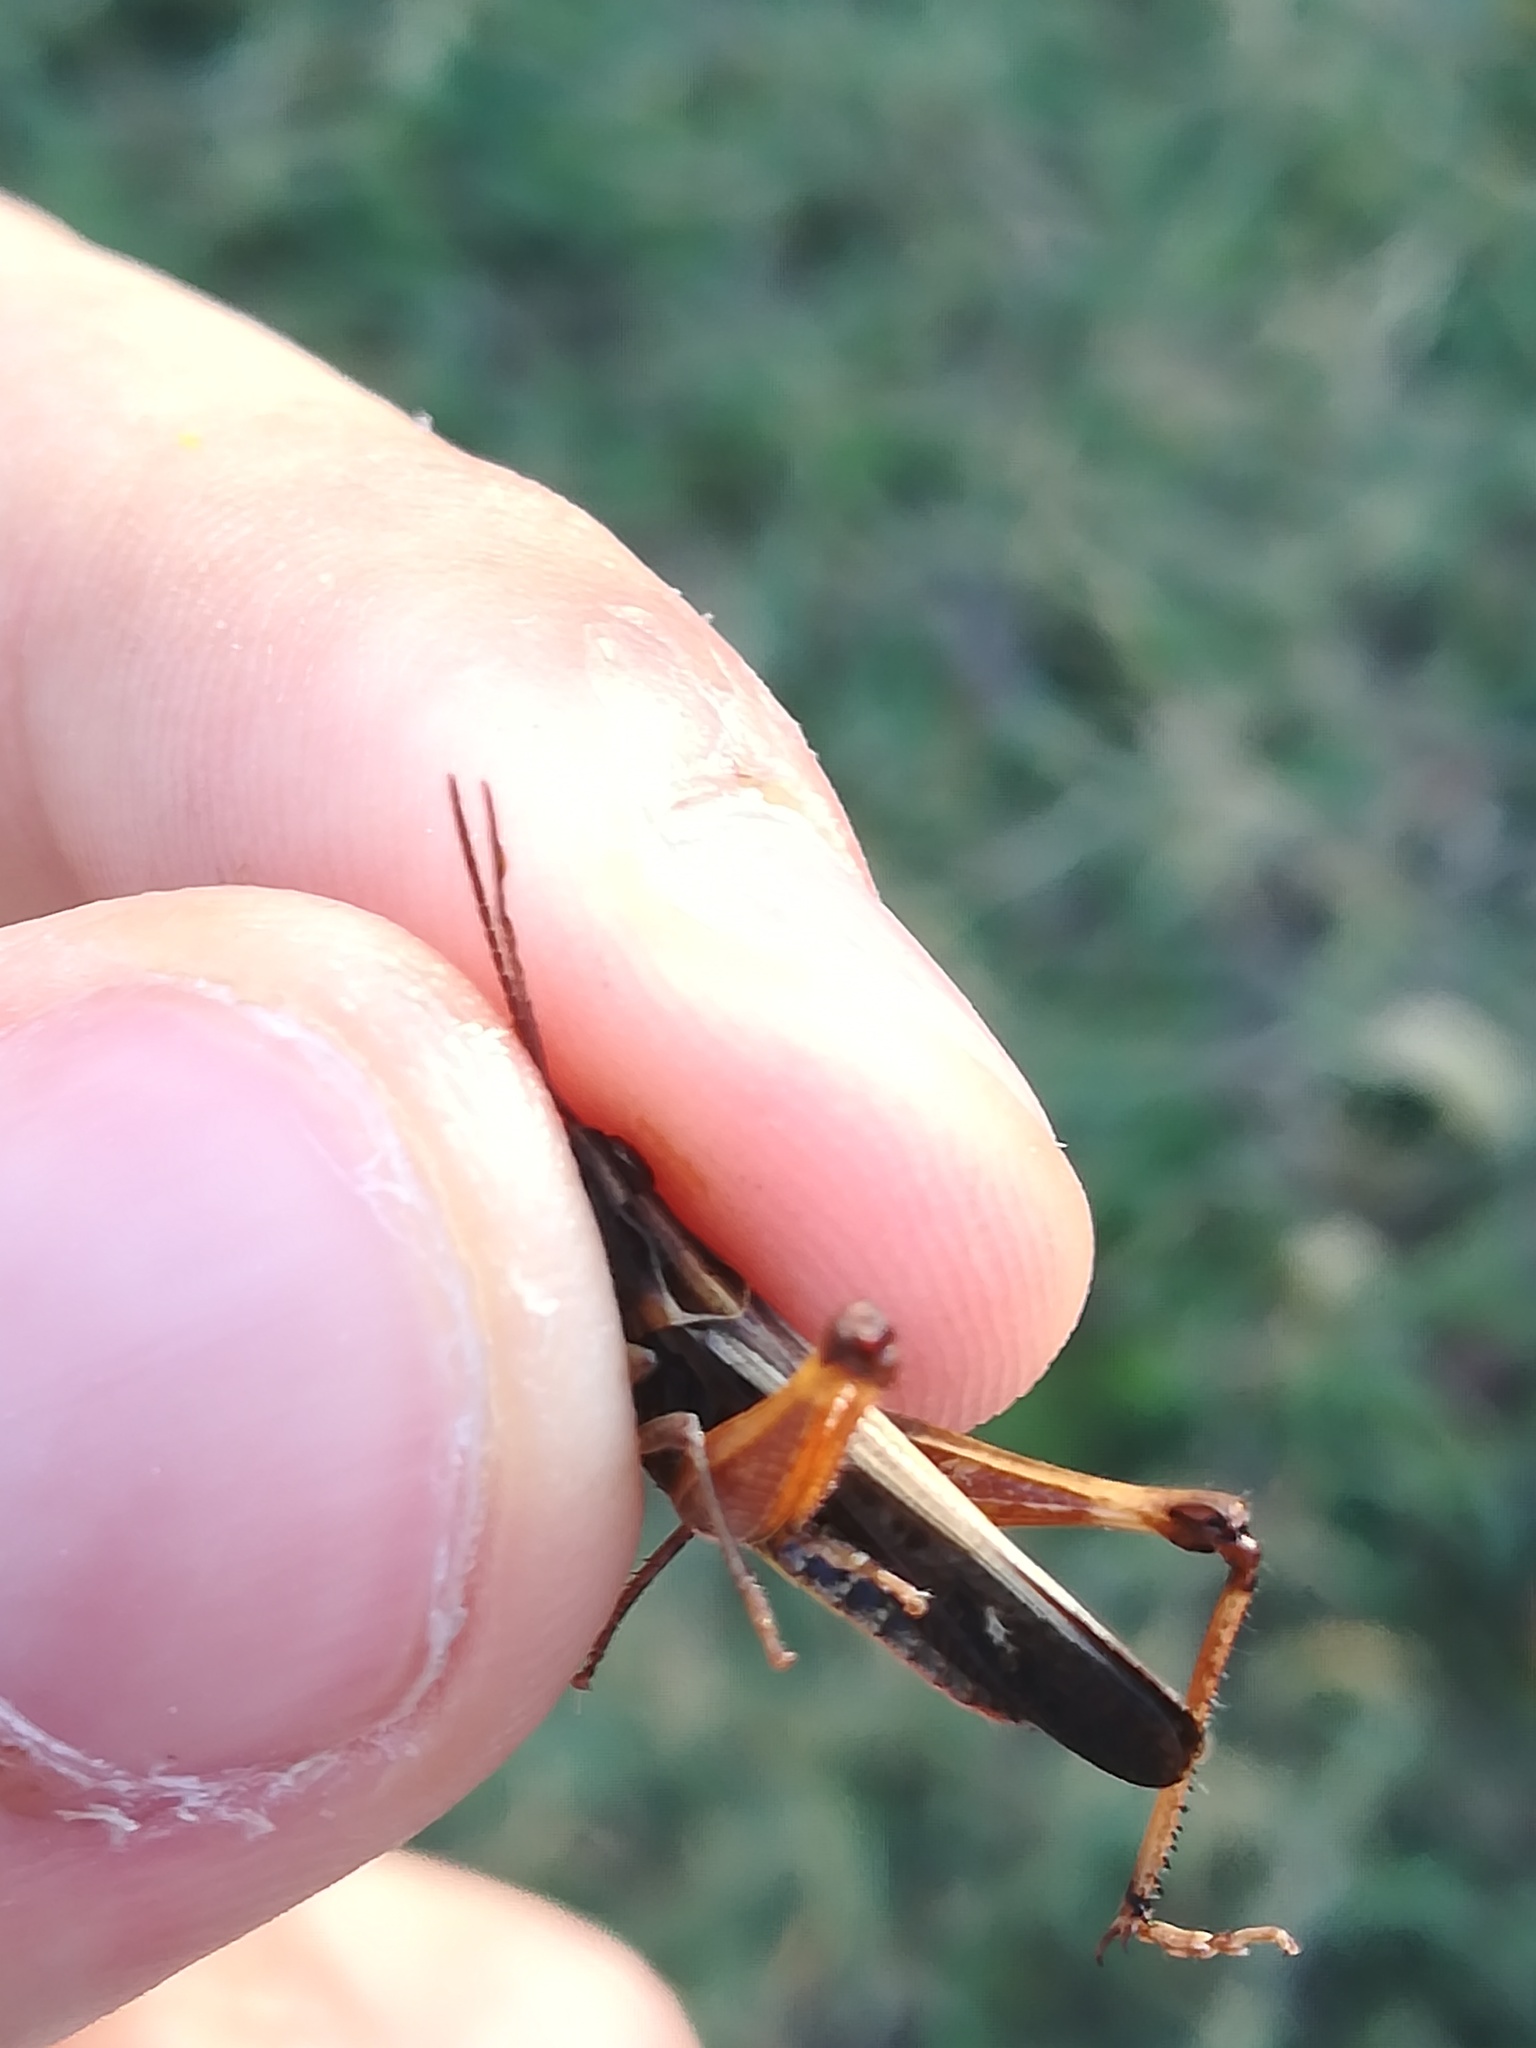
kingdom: Animalia
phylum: Arthropoda
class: Insecta
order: Orthoptera
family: Acrididae
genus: Omocestus
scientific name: Omocestus rufipes
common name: Woodland grasshopper
